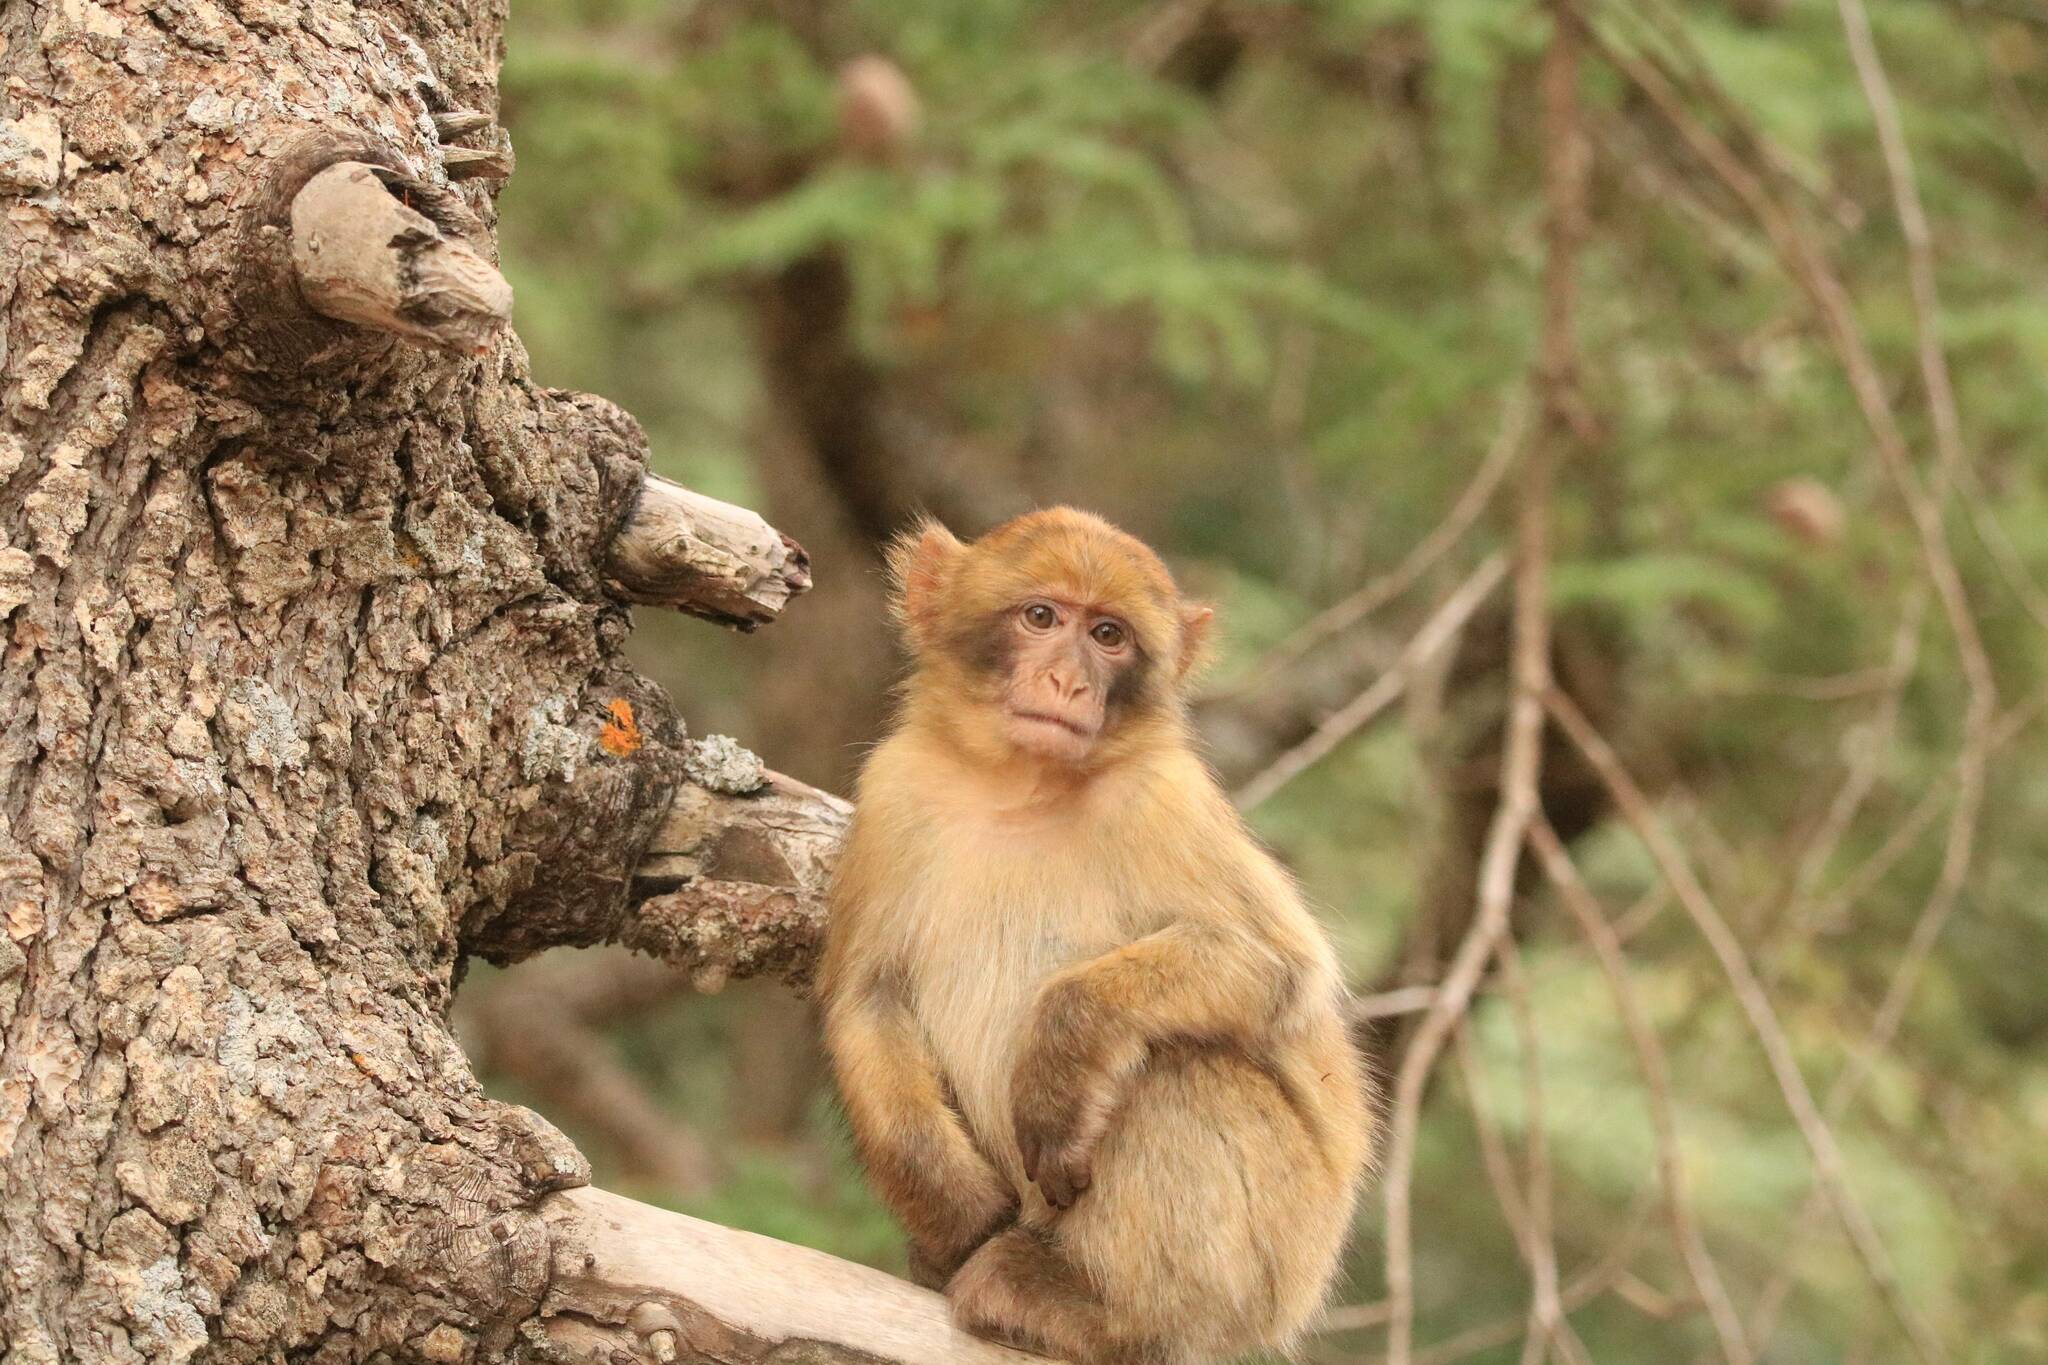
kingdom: Animalia
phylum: Chordata
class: Mammalia
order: Primates
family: Cercopithecidae
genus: Macaca
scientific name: Macaca sylvanus
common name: Barbary macaque
